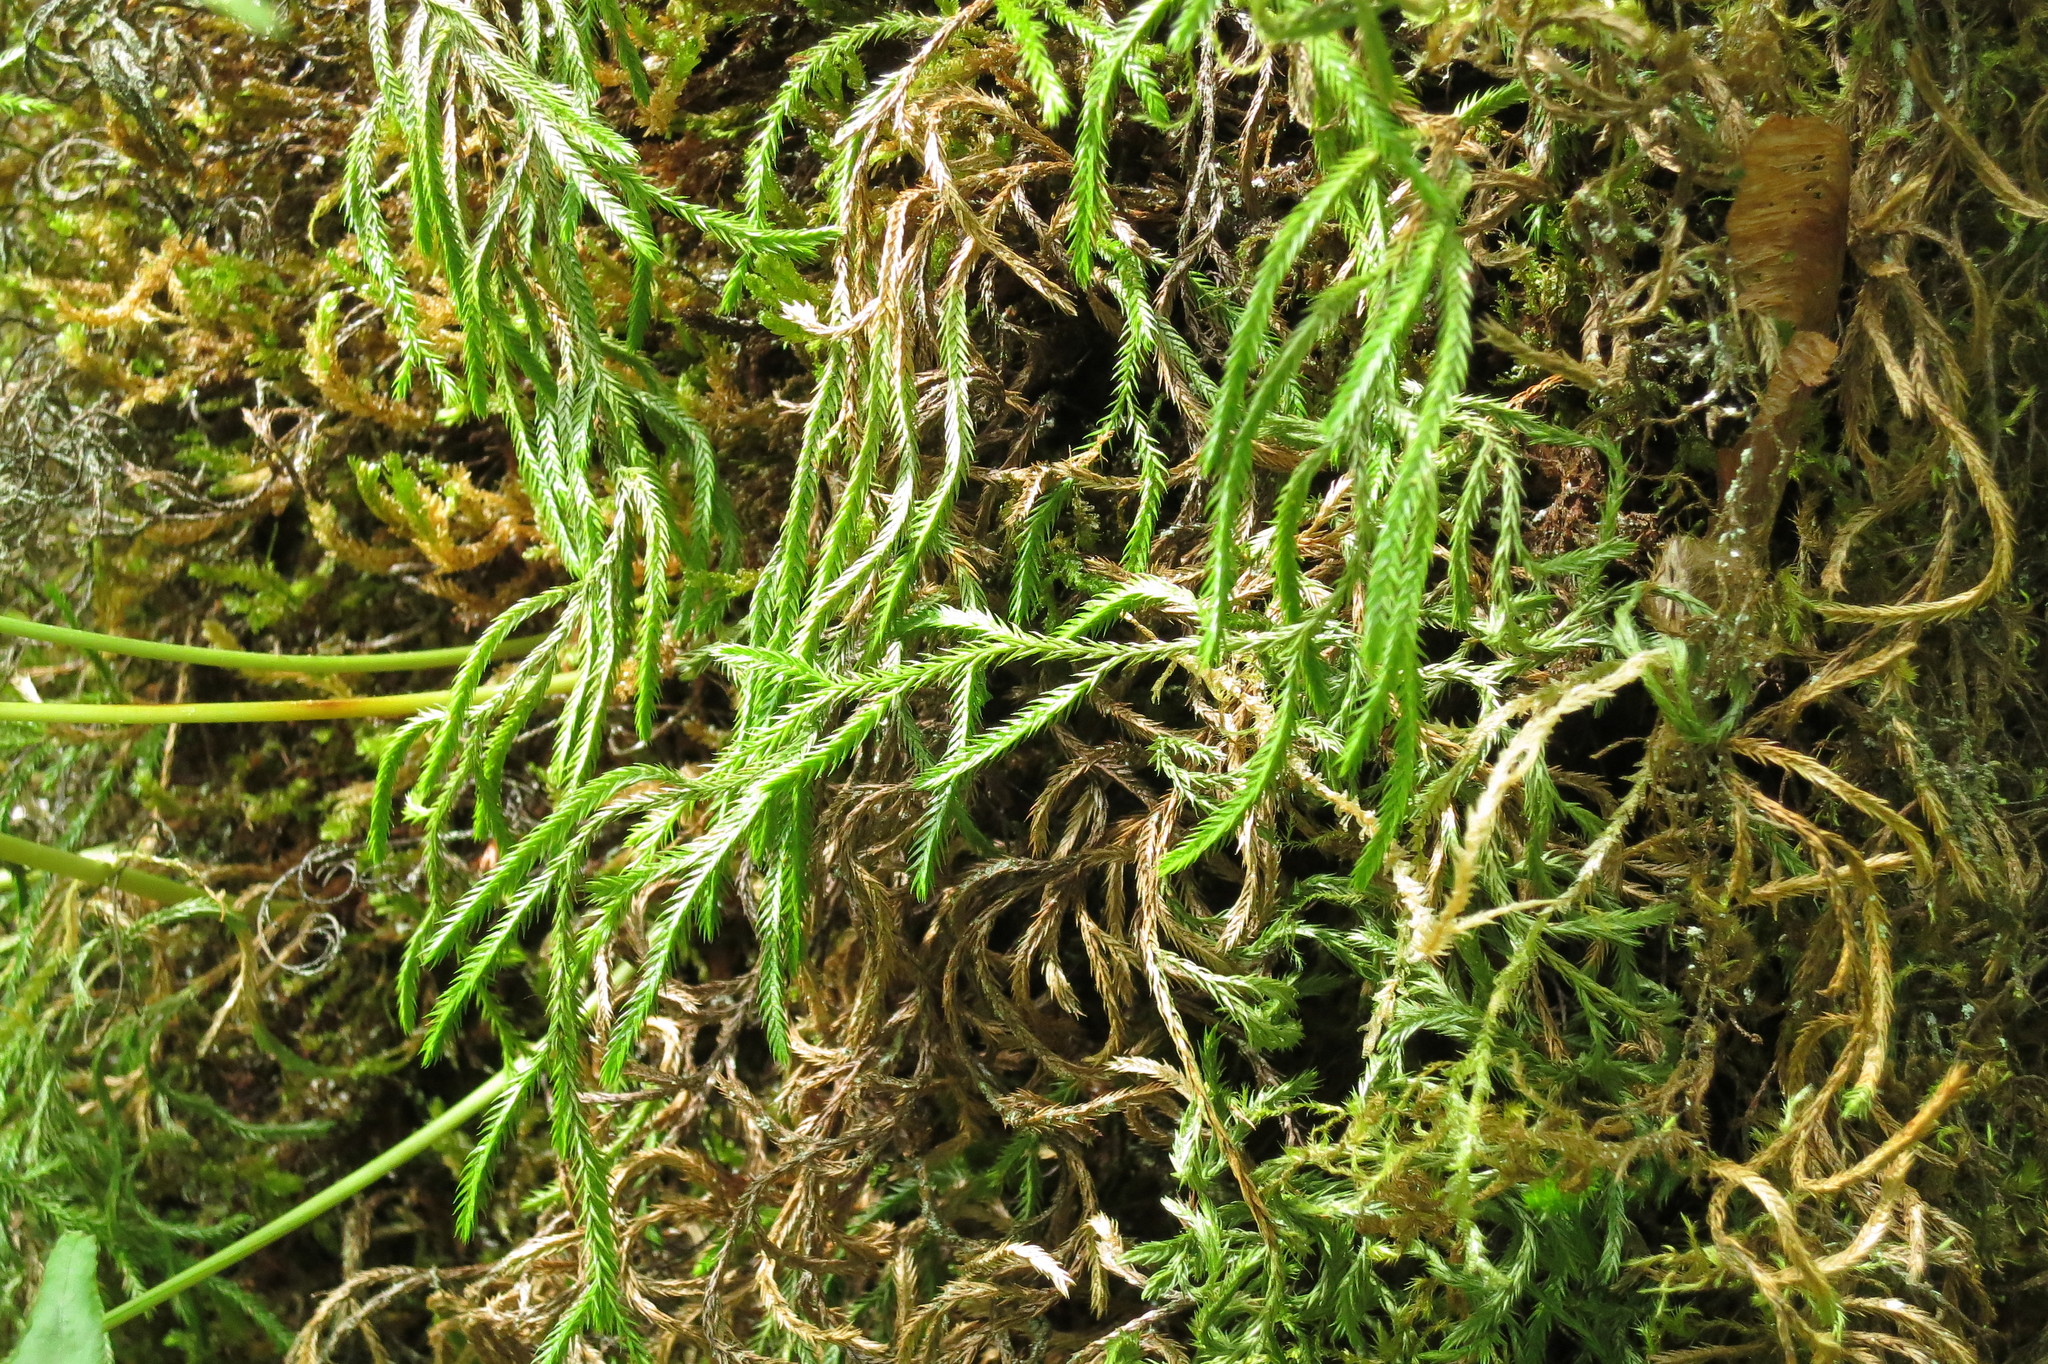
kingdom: Plantae
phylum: Tracheophyta
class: Lycopodiopsida
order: Selaginellales
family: Selaginellaceae
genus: Selaginella
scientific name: Selaginella oregana
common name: Oregon selaginella
